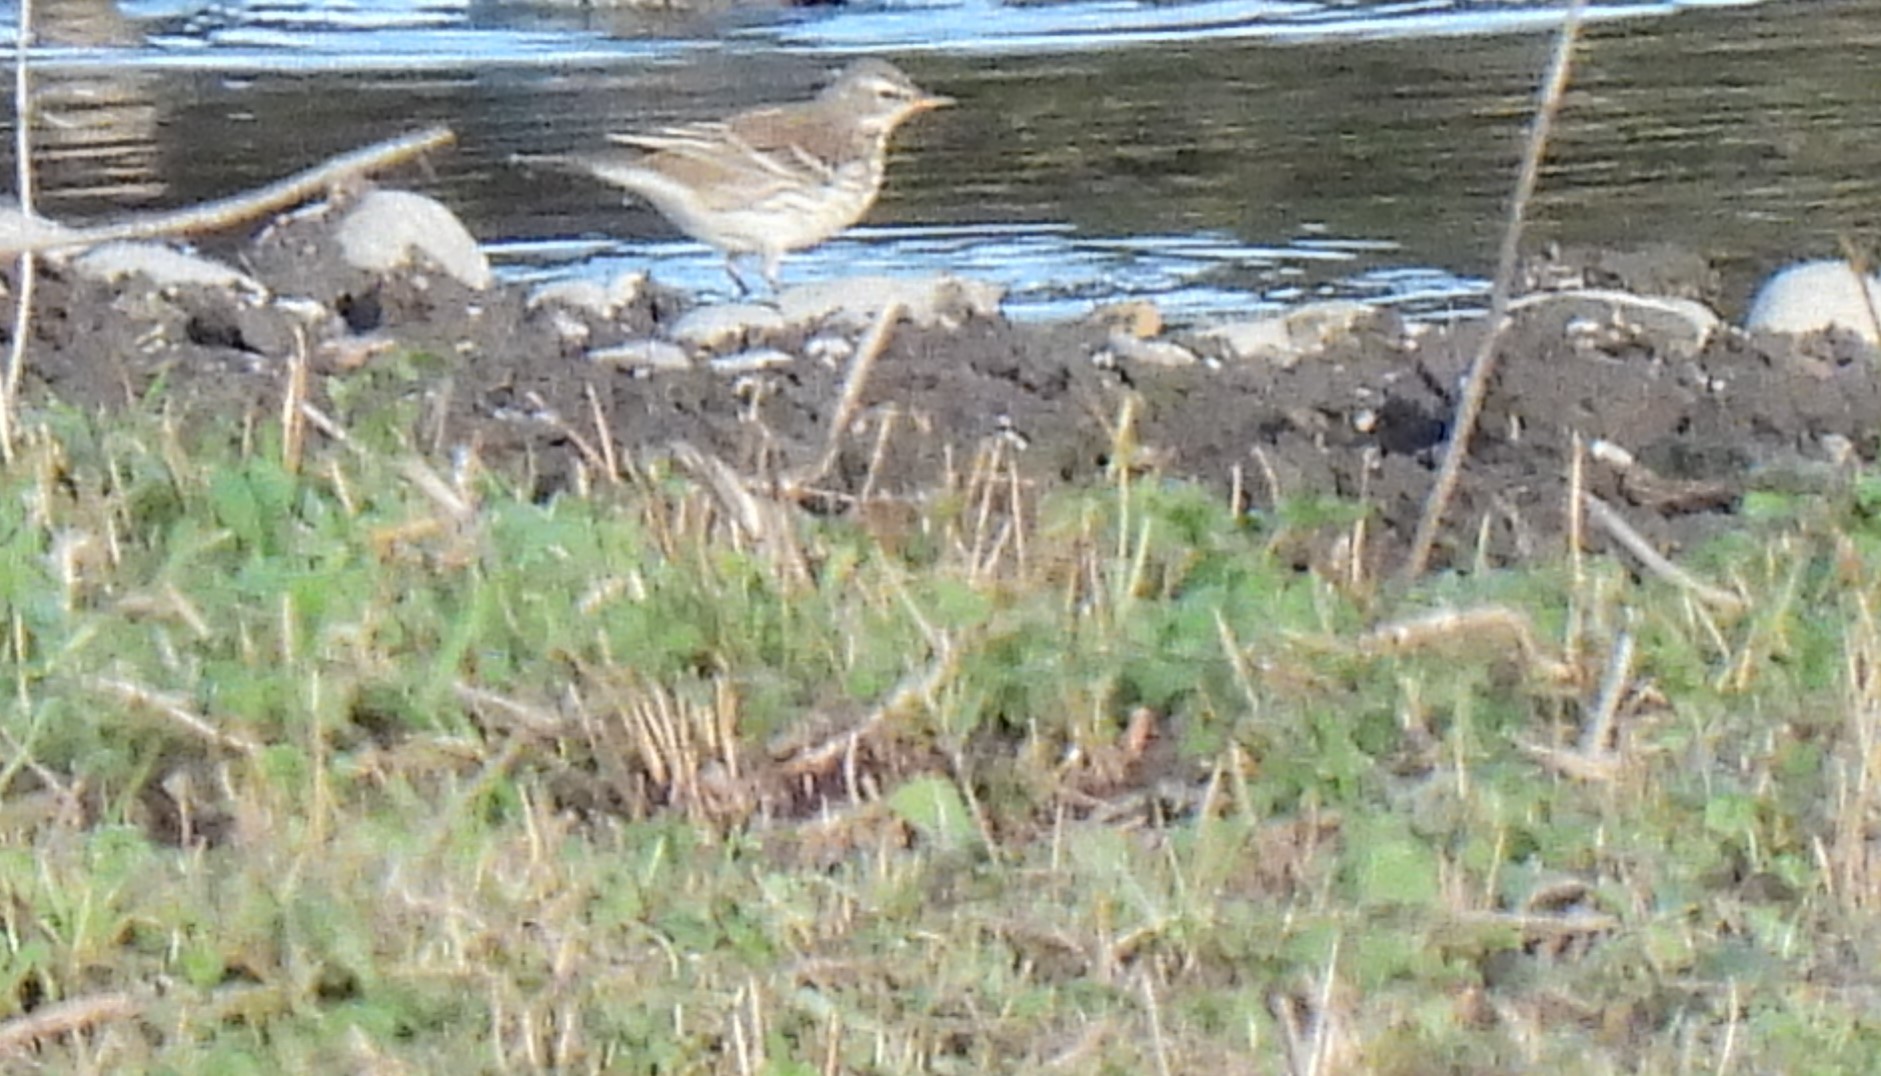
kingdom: Animalia
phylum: Chordata
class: Aves
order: Passeriformes
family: Motacillidae
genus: Anthus
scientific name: Anthus spinoletta
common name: Water pipit
